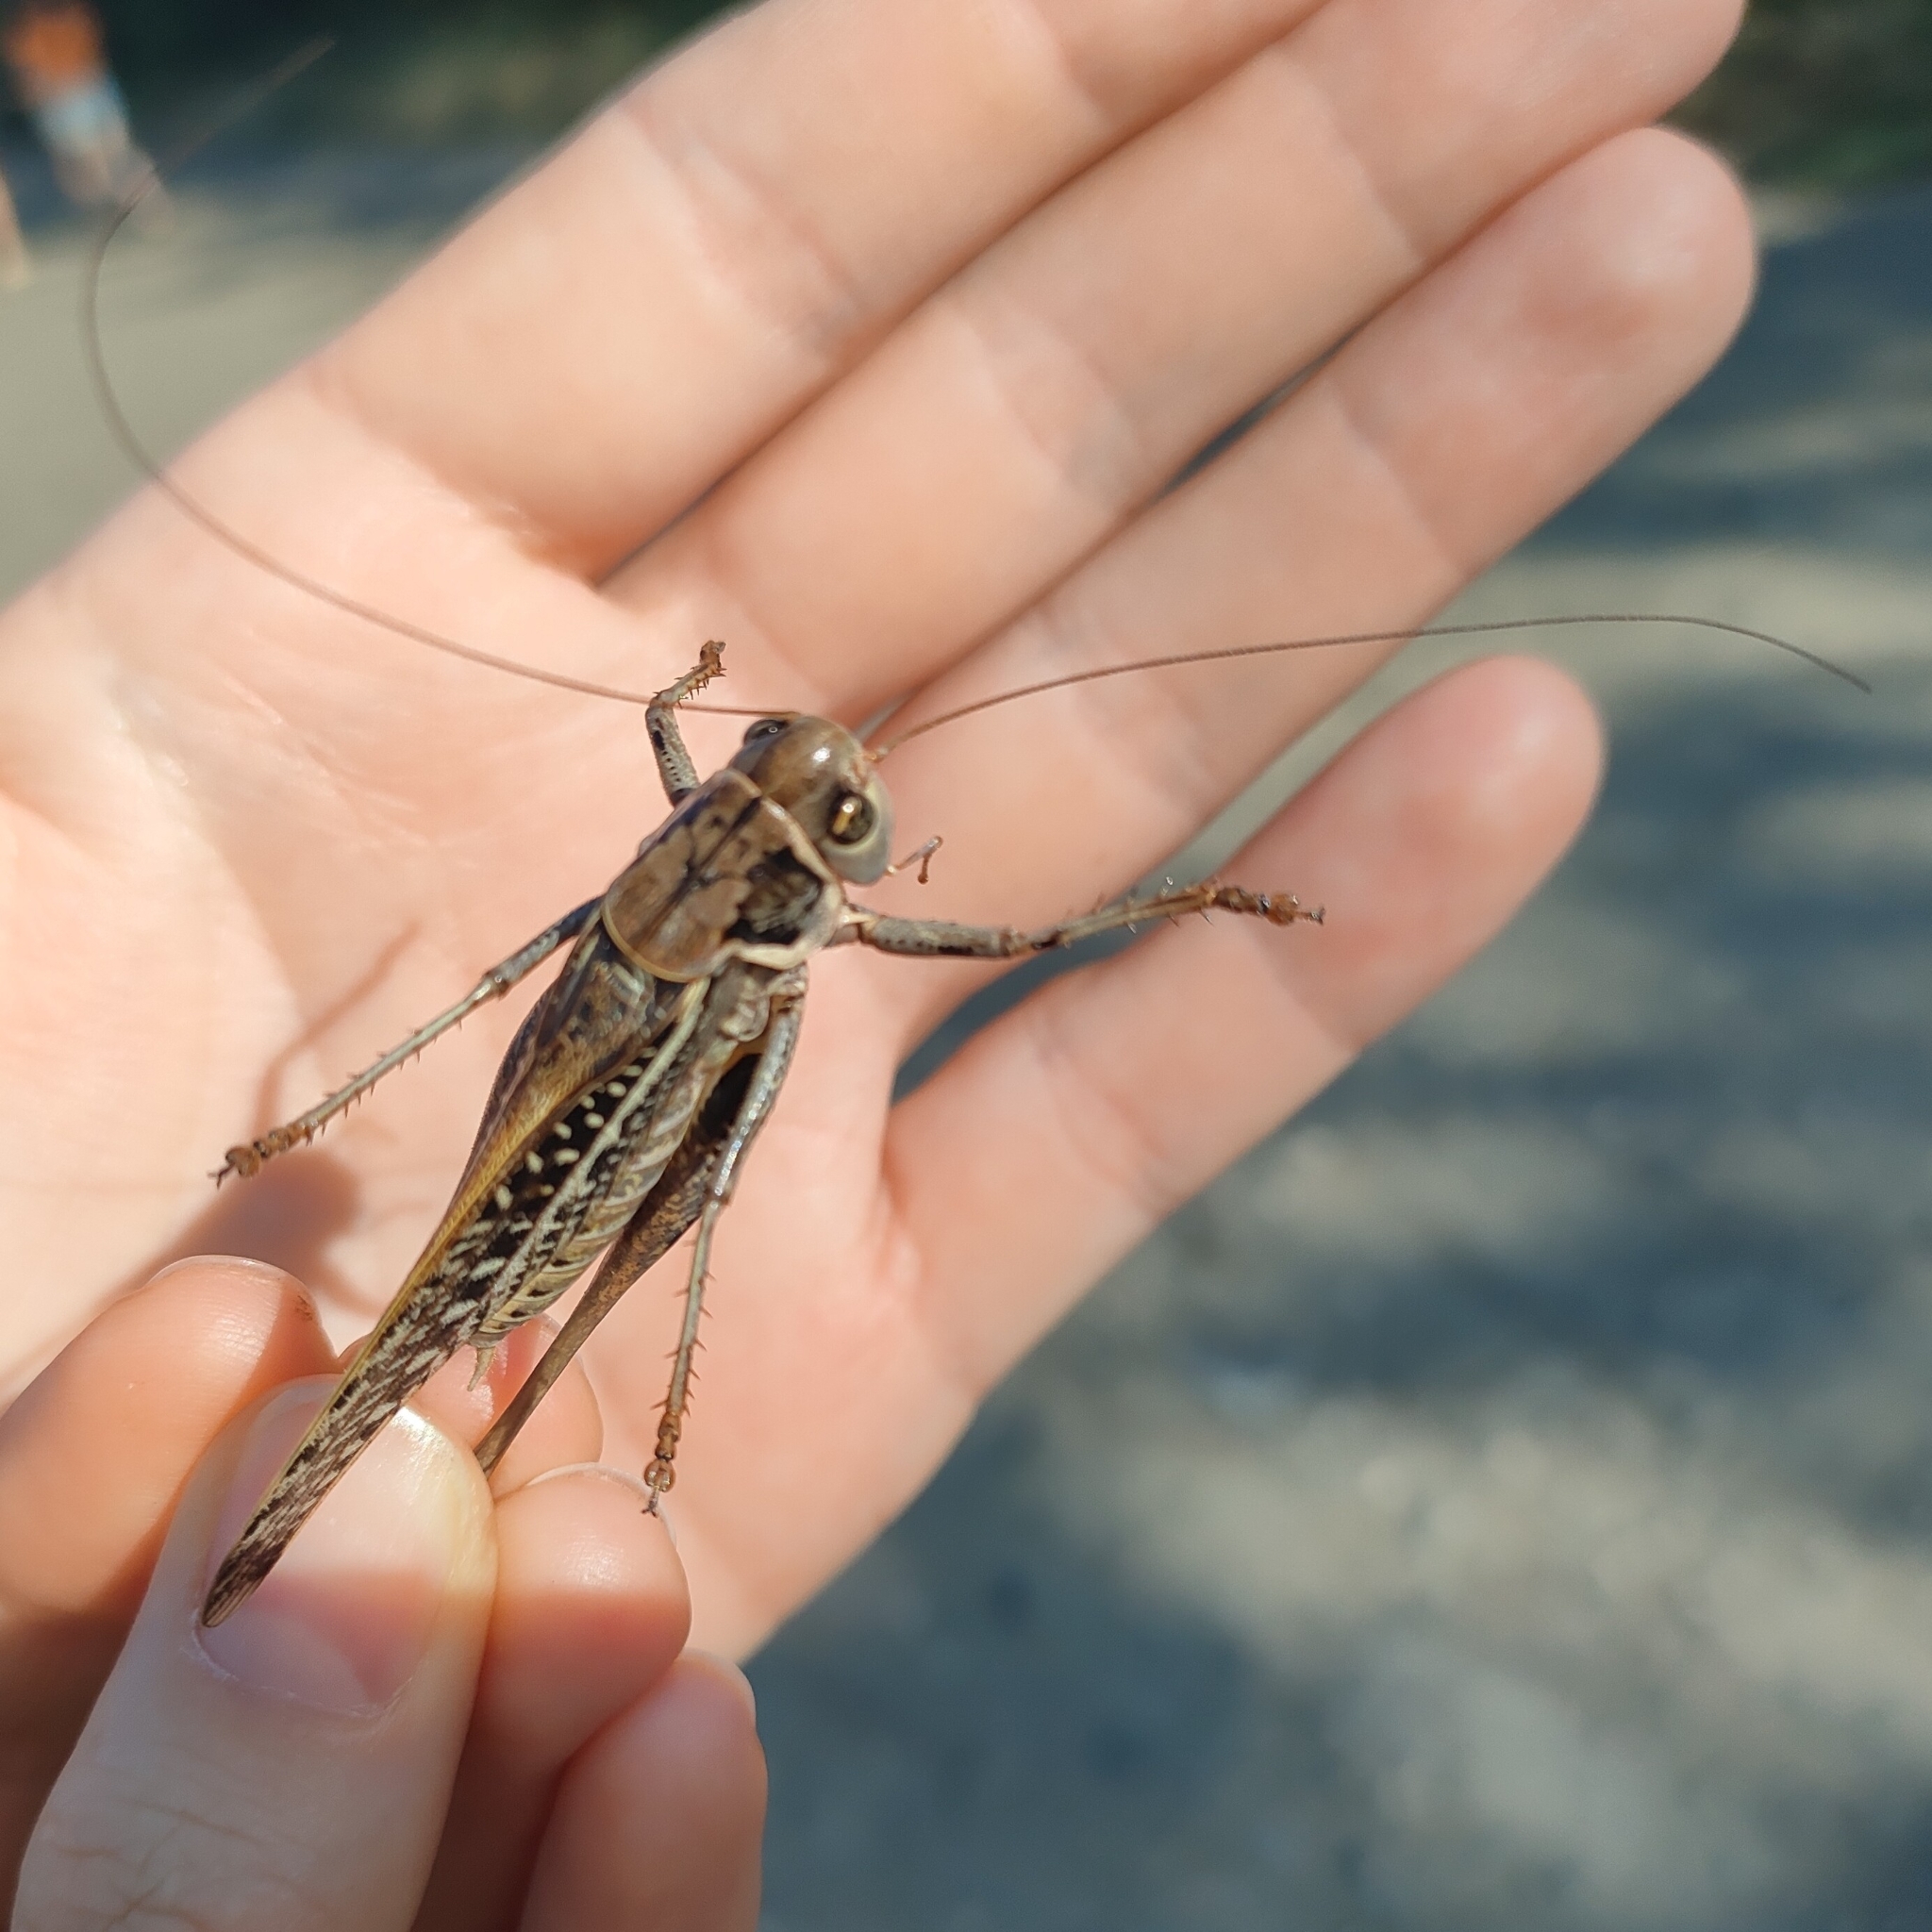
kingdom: Animalia
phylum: Arthropoda
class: Insecta
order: Orthoptera
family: Tettigoniidae
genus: Decticus
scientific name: Decticus albifrons
